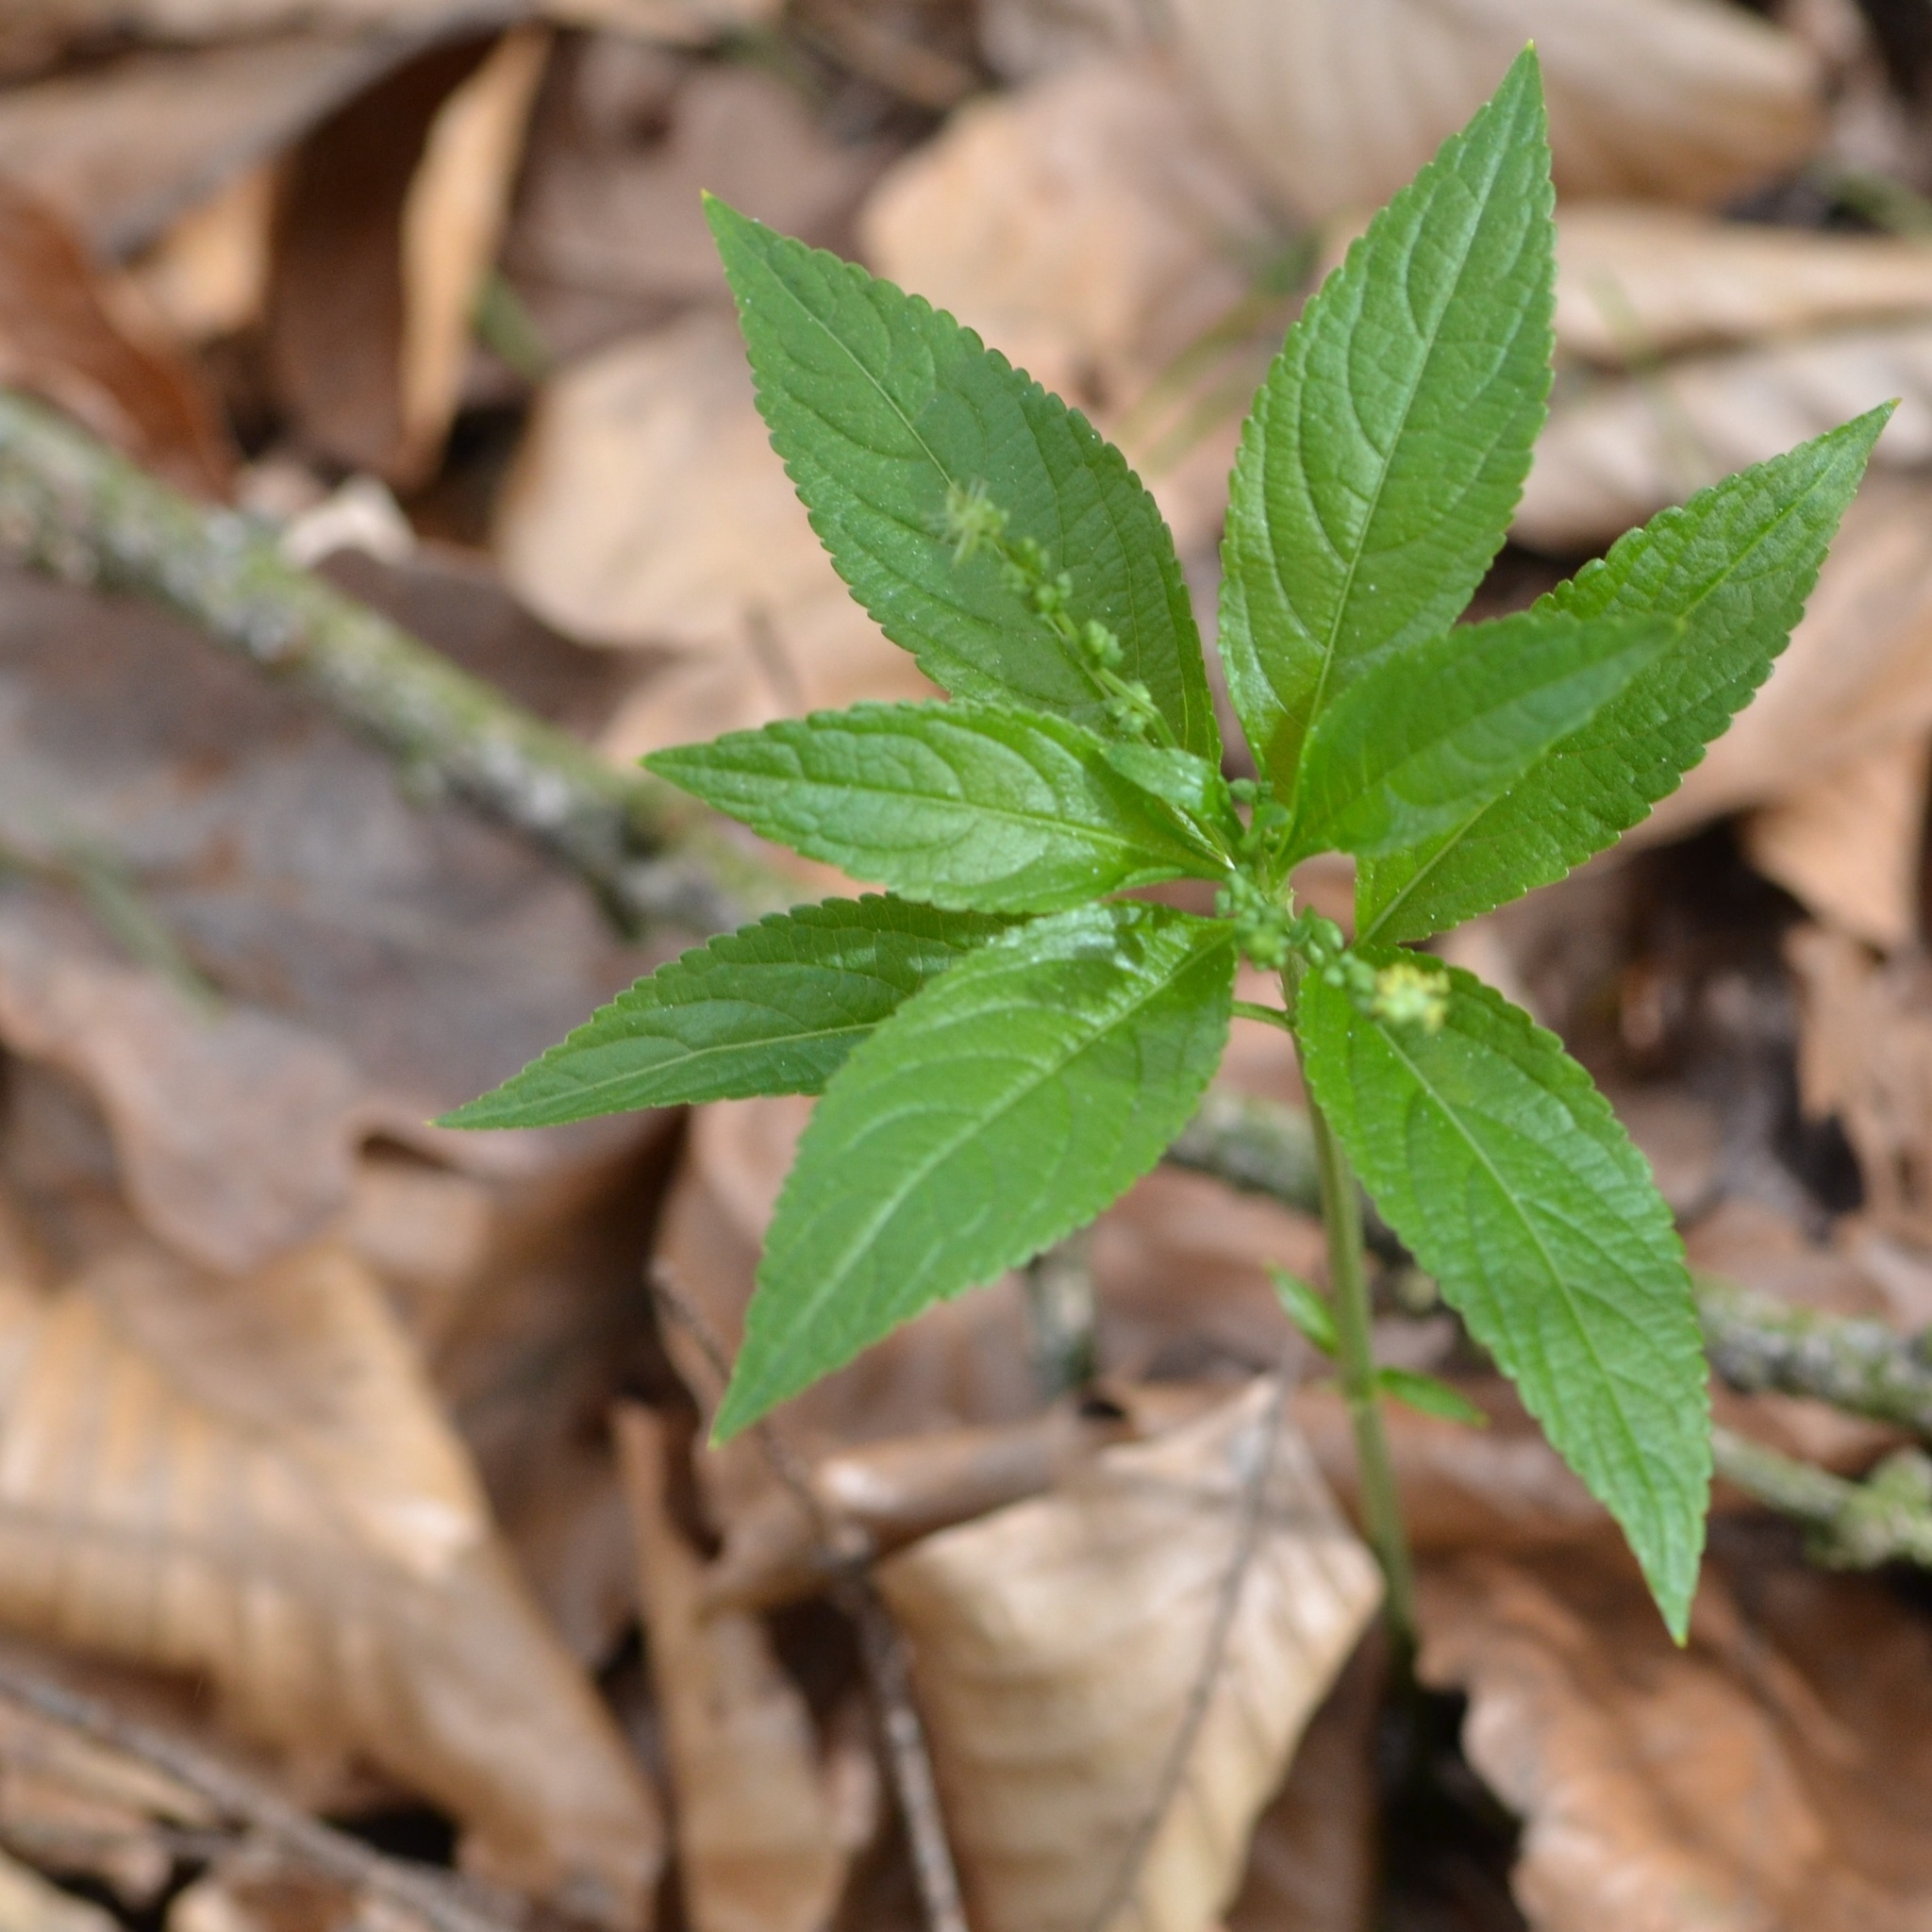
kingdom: Plantae
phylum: Tracheophyta
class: Magnoliopsida
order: Malpighiales
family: Euphorbiaceae
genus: Mercurialis
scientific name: Mercurialis perennis
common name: Dog mercury
